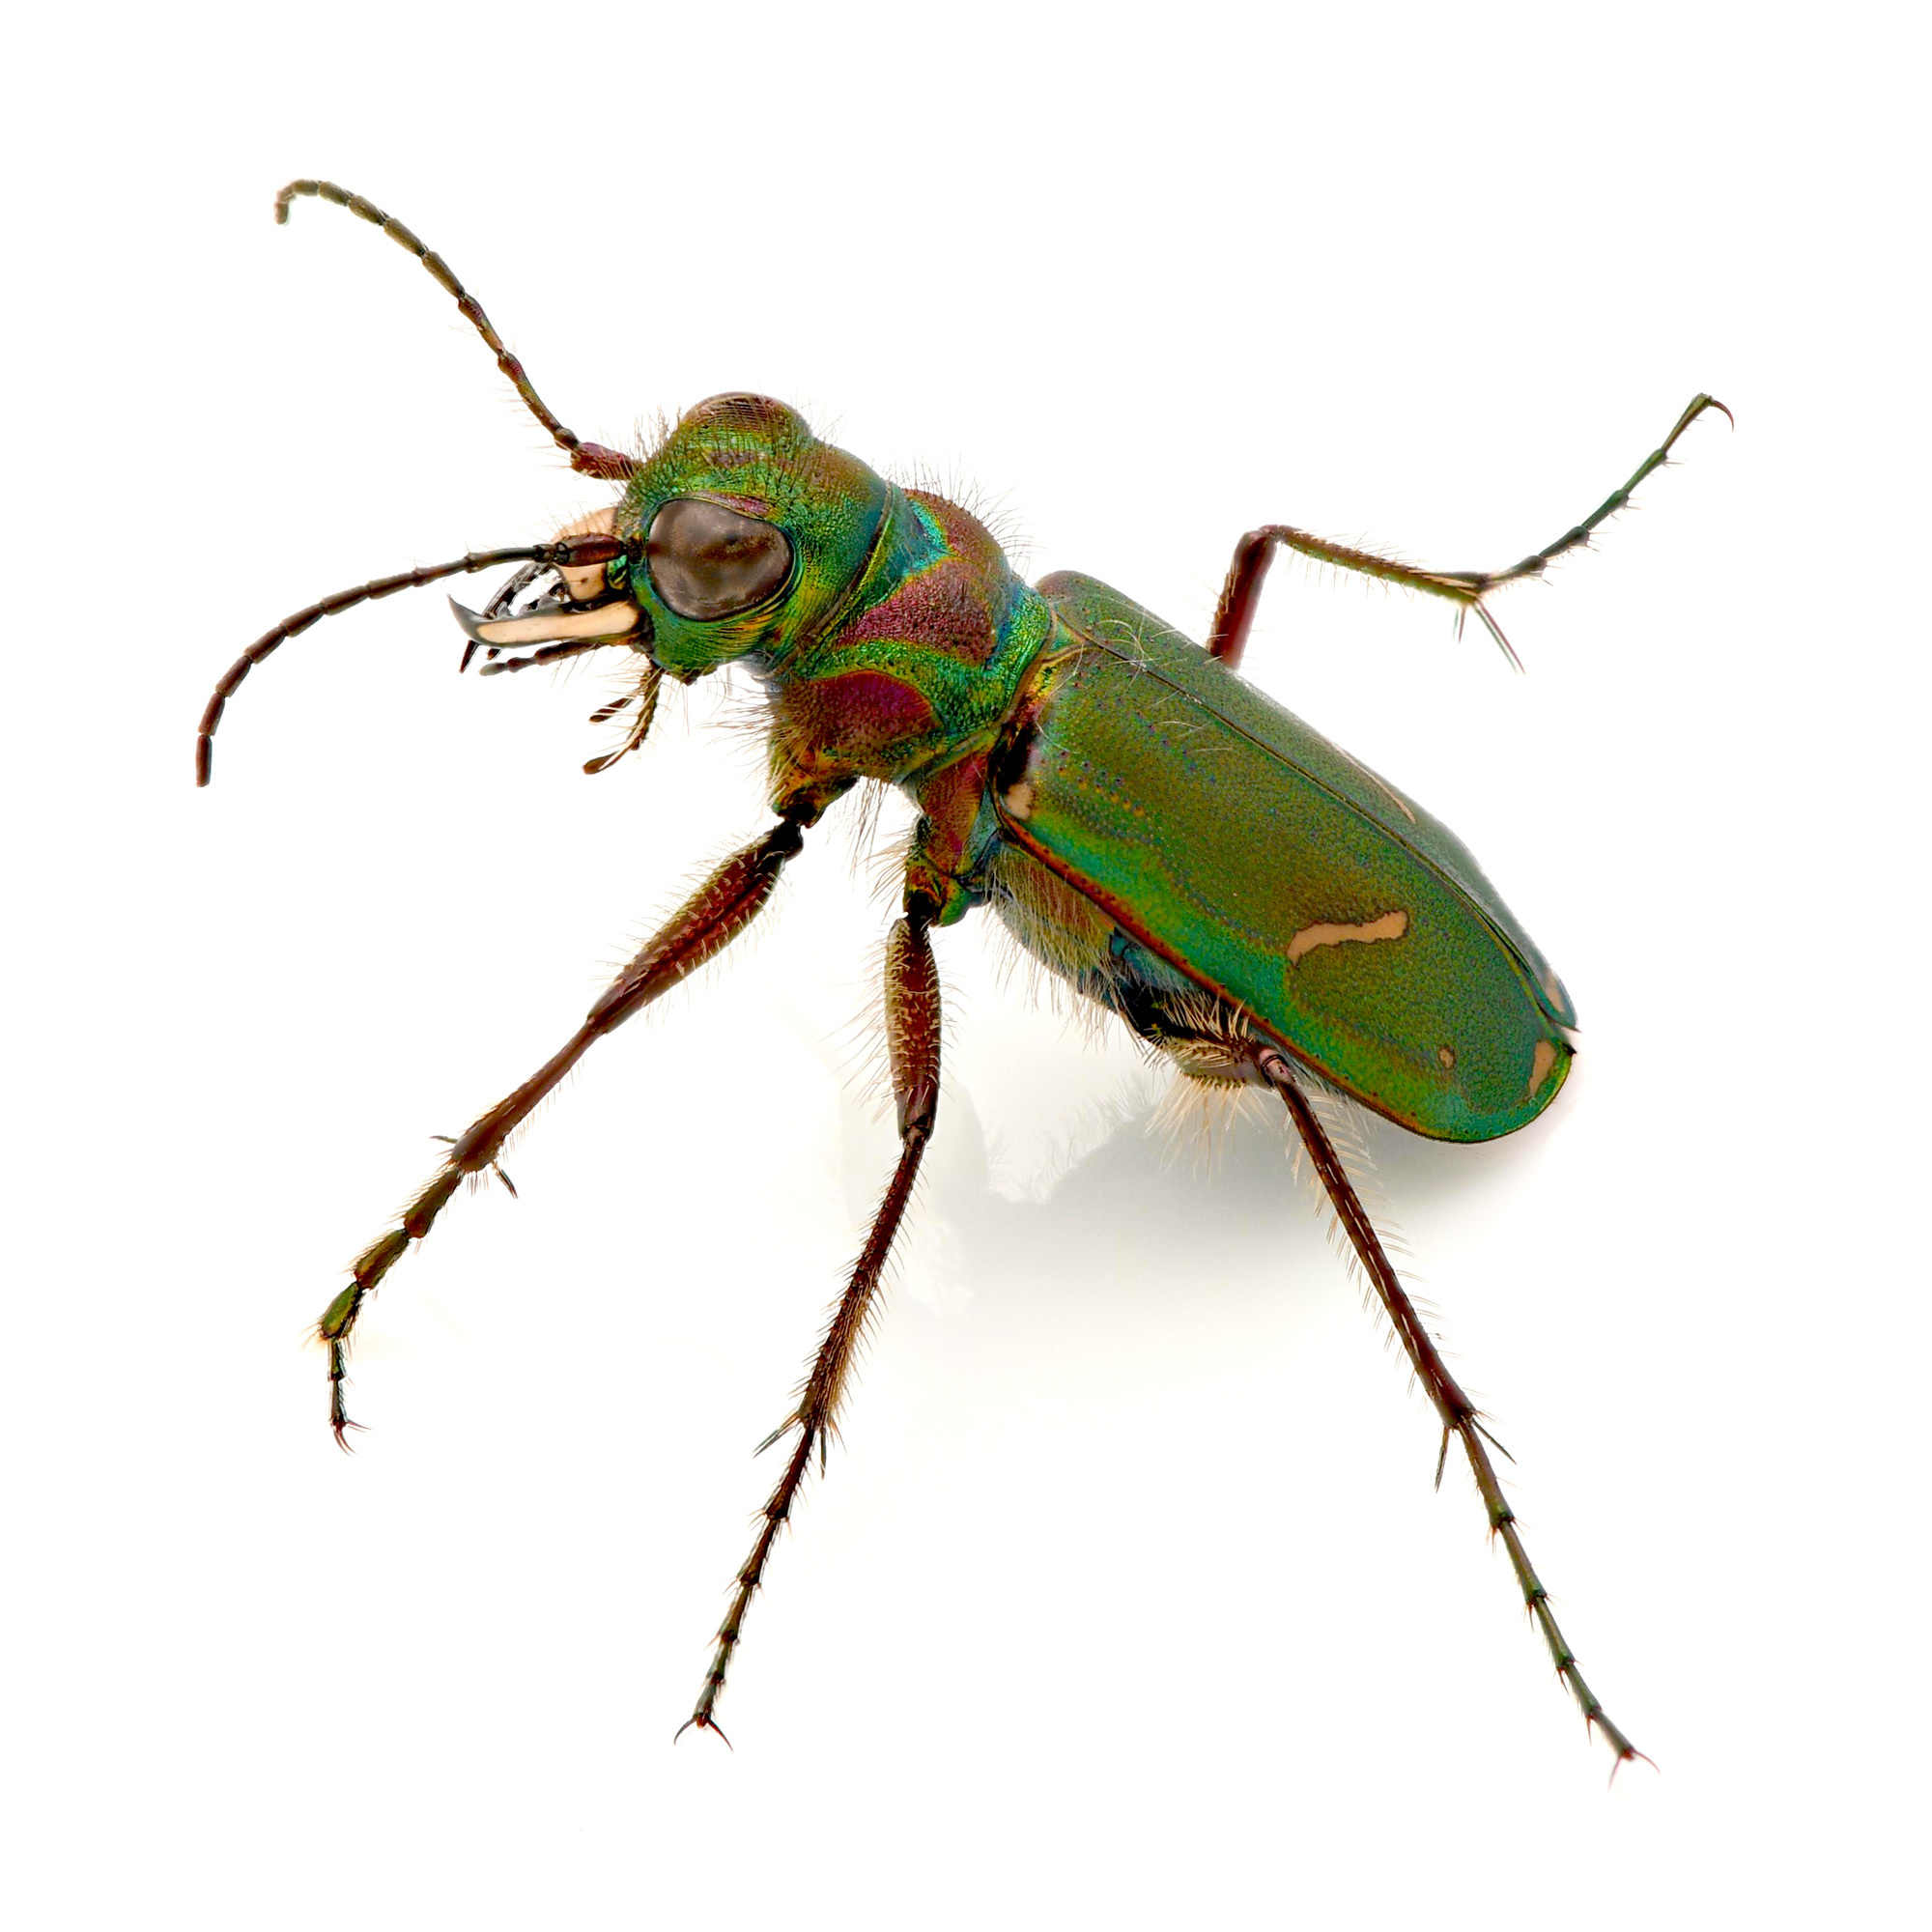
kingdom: Animalia
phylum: Arthropoda
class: Insecta
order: Coleoptera
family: Carabidae
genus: Cicindela
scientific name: Cicindela purpurea
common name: Cow path tiger beetle
